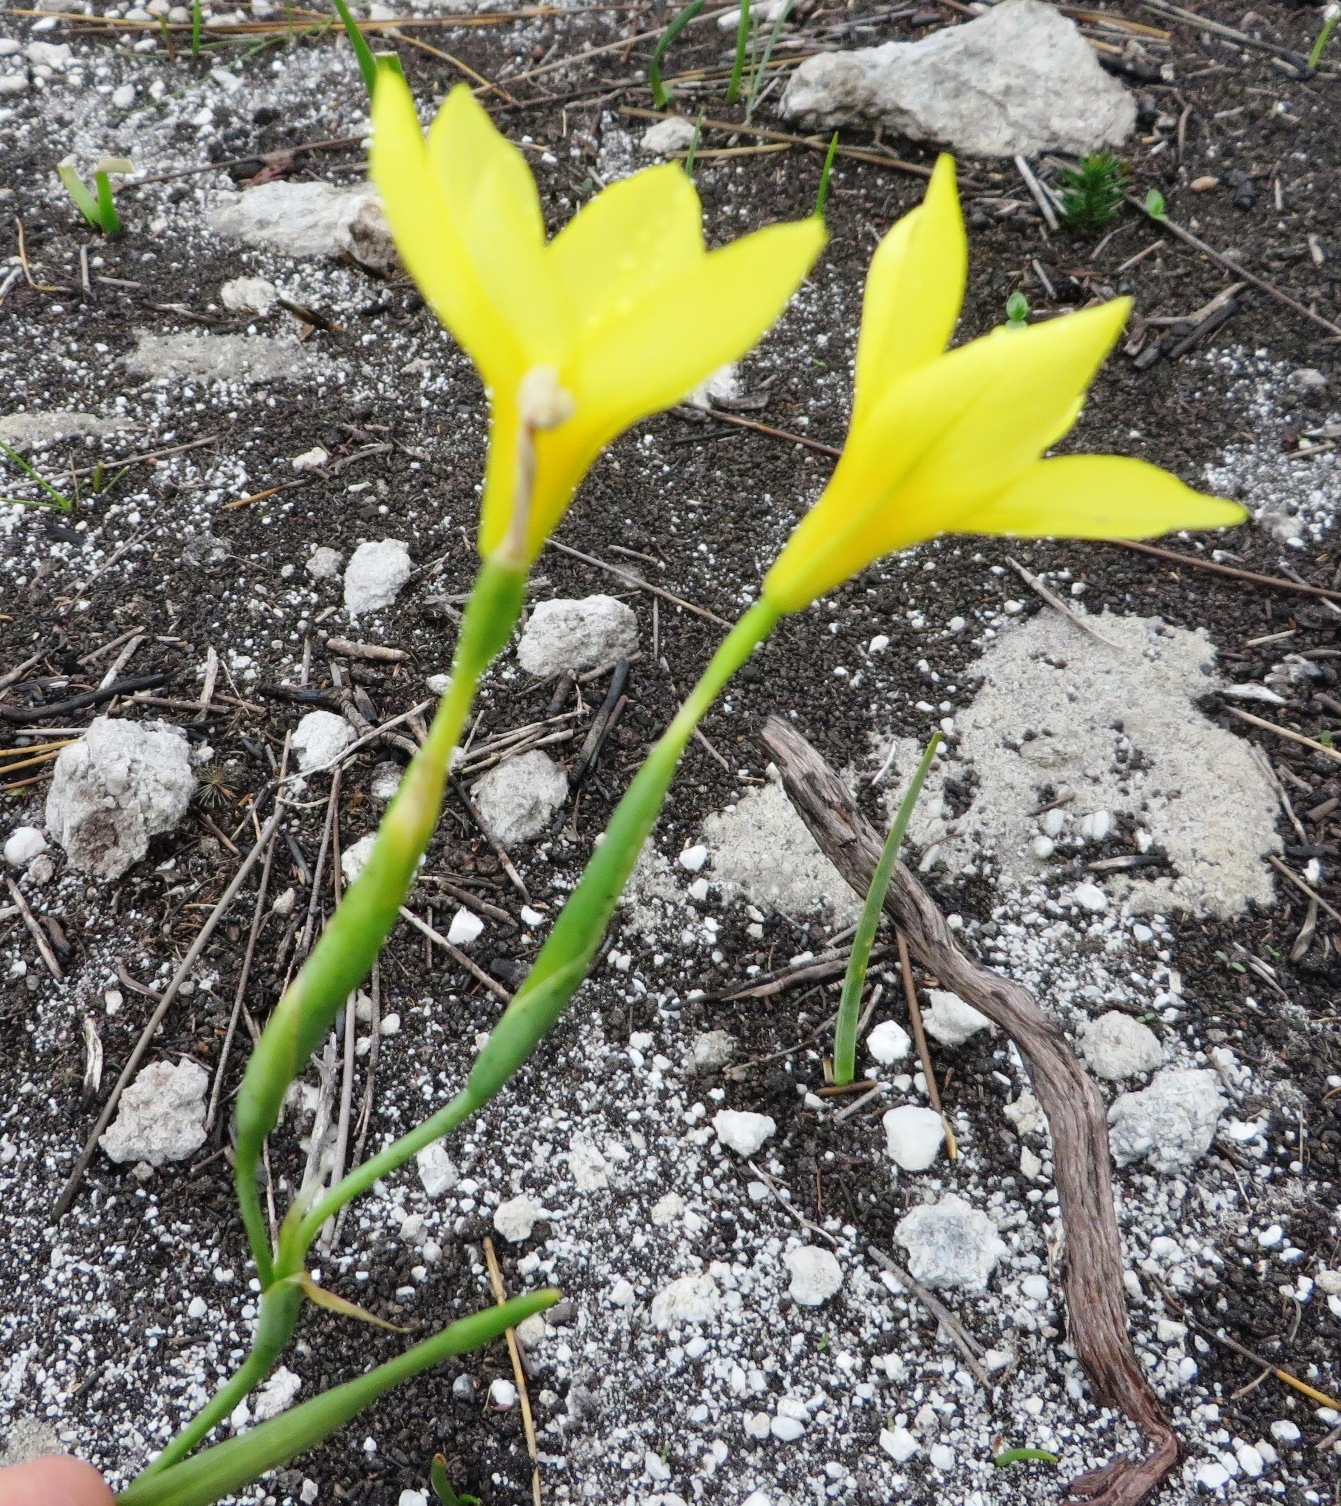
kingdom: Plantae
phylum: Tracheophyta
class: Liliopsida
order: Asparagales
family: Iridaceae
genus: Moraea
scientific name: Moraea pyrophila
